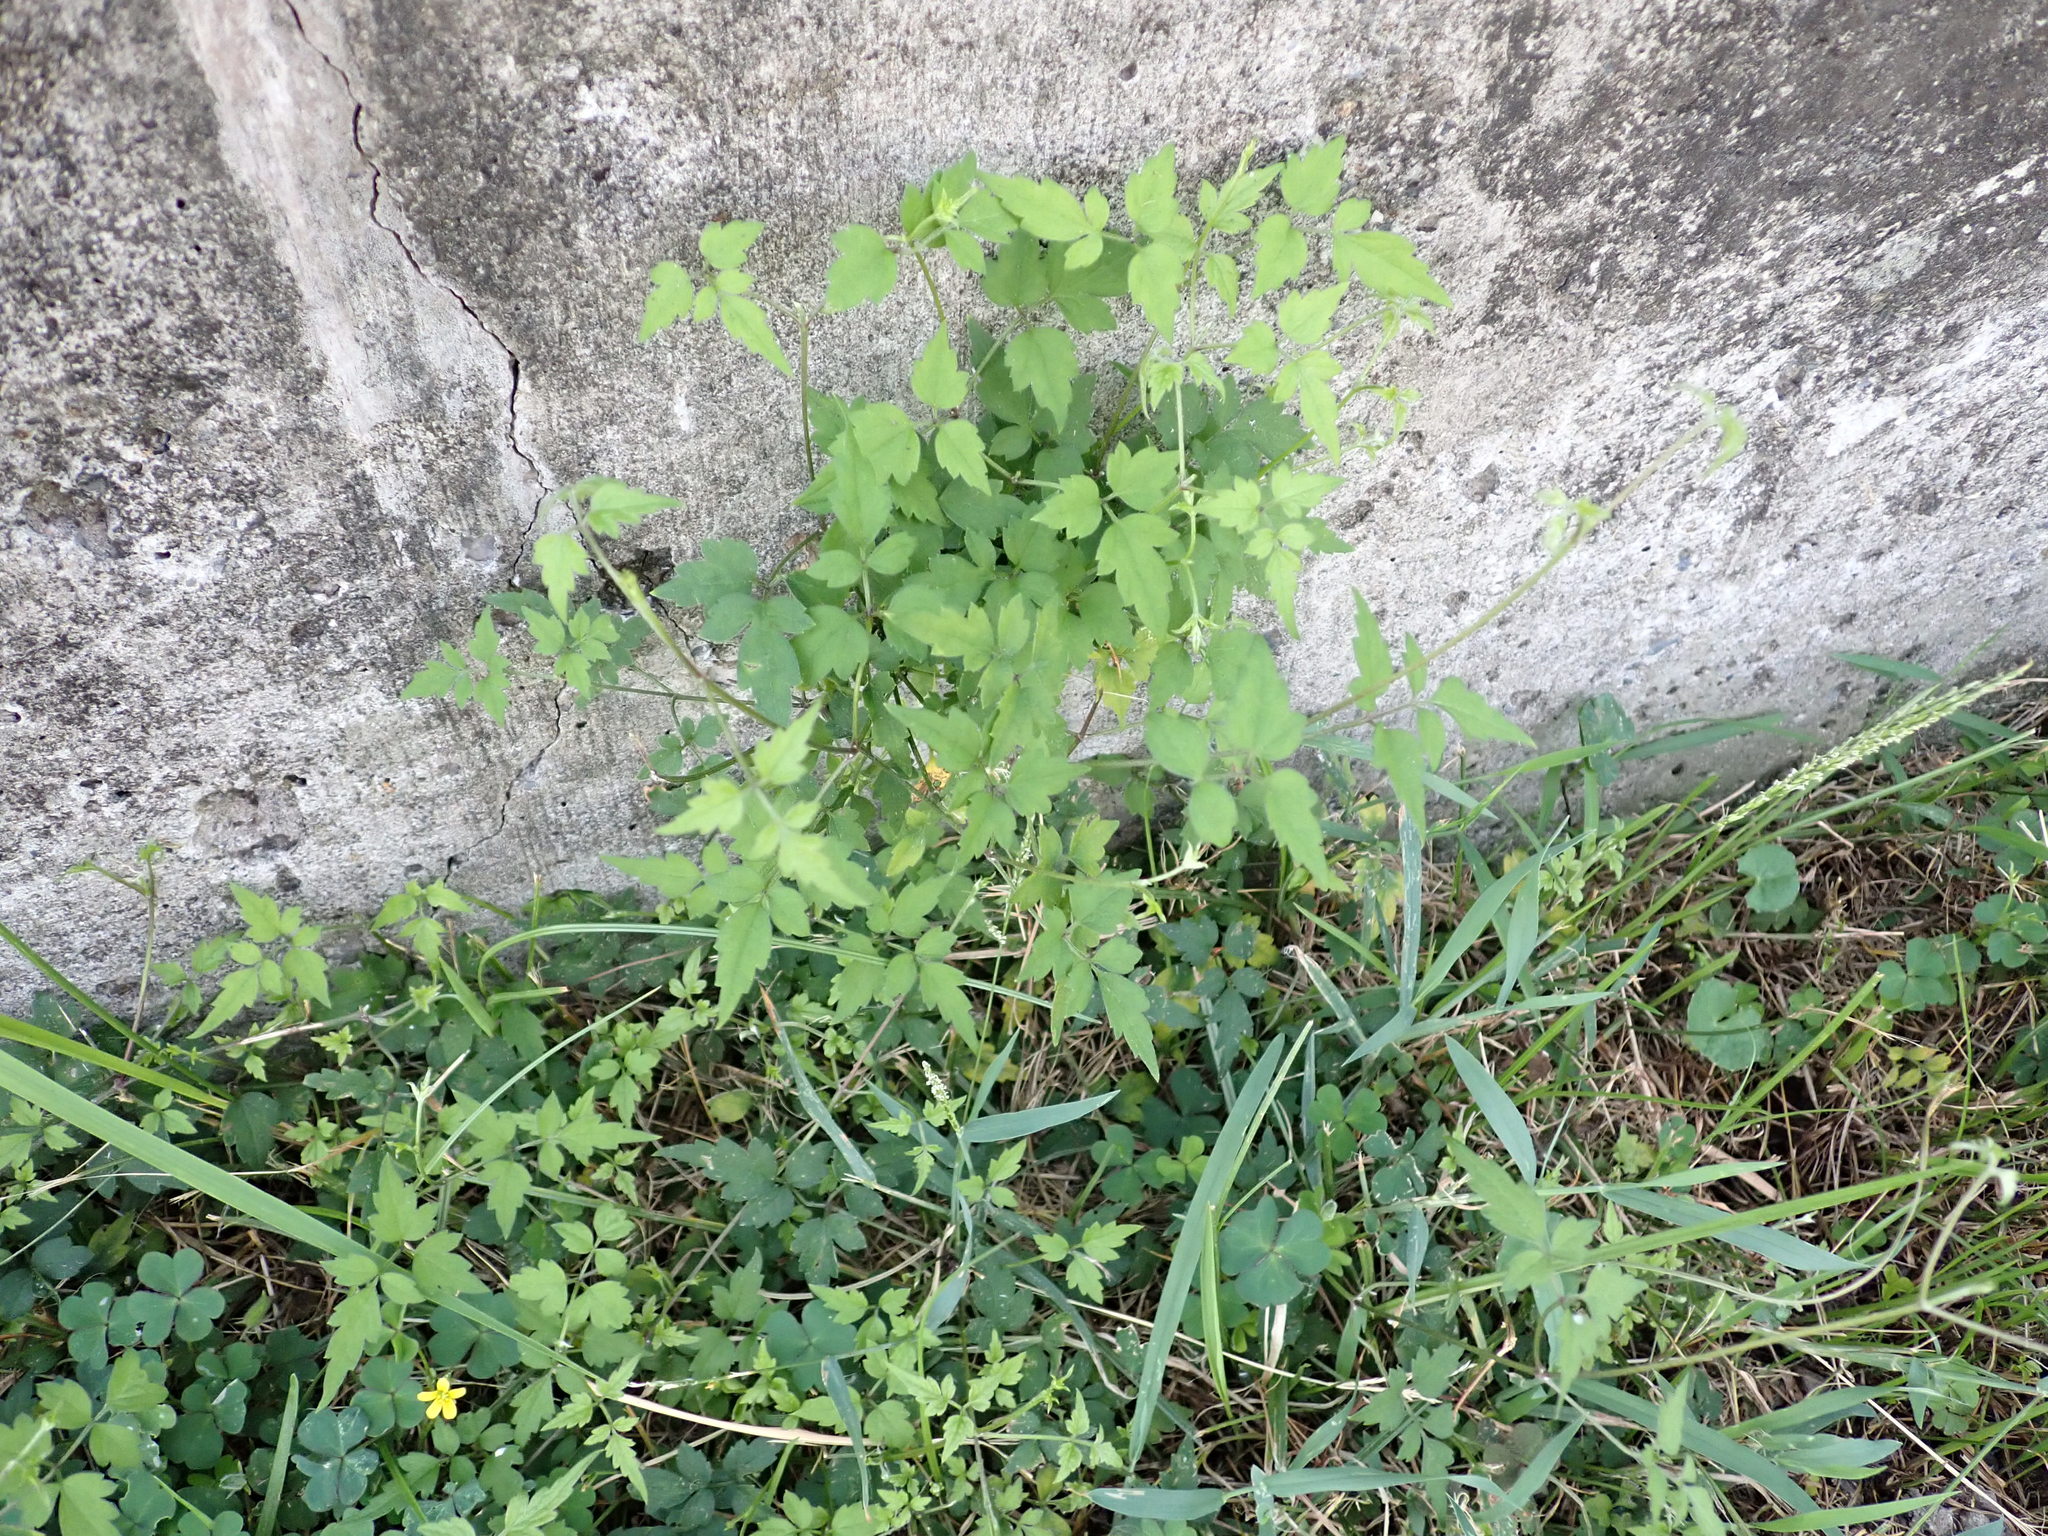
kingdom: Plantae
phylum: Tracheophyta
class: Magnoliopsida
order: Ranunculales
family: Ranunculaceae
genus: Clematis
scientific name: Clematis grata
